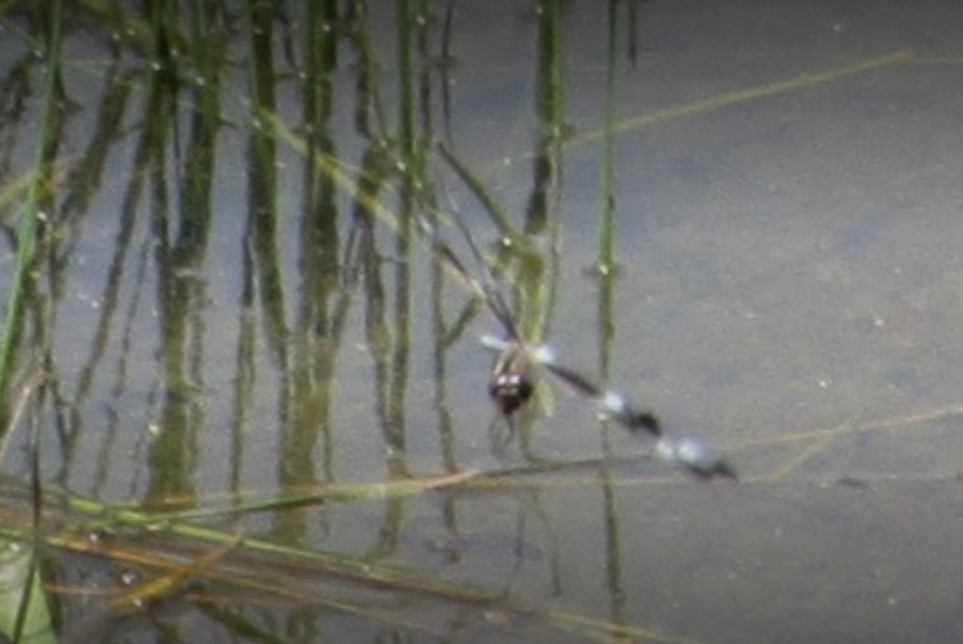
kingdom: Animalia
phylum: Arthropoda
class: Insecta
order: Odonata
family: Libellulidae
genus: Libellula
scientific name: Libellula pulchella
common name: Twelve-spotted skimmer
